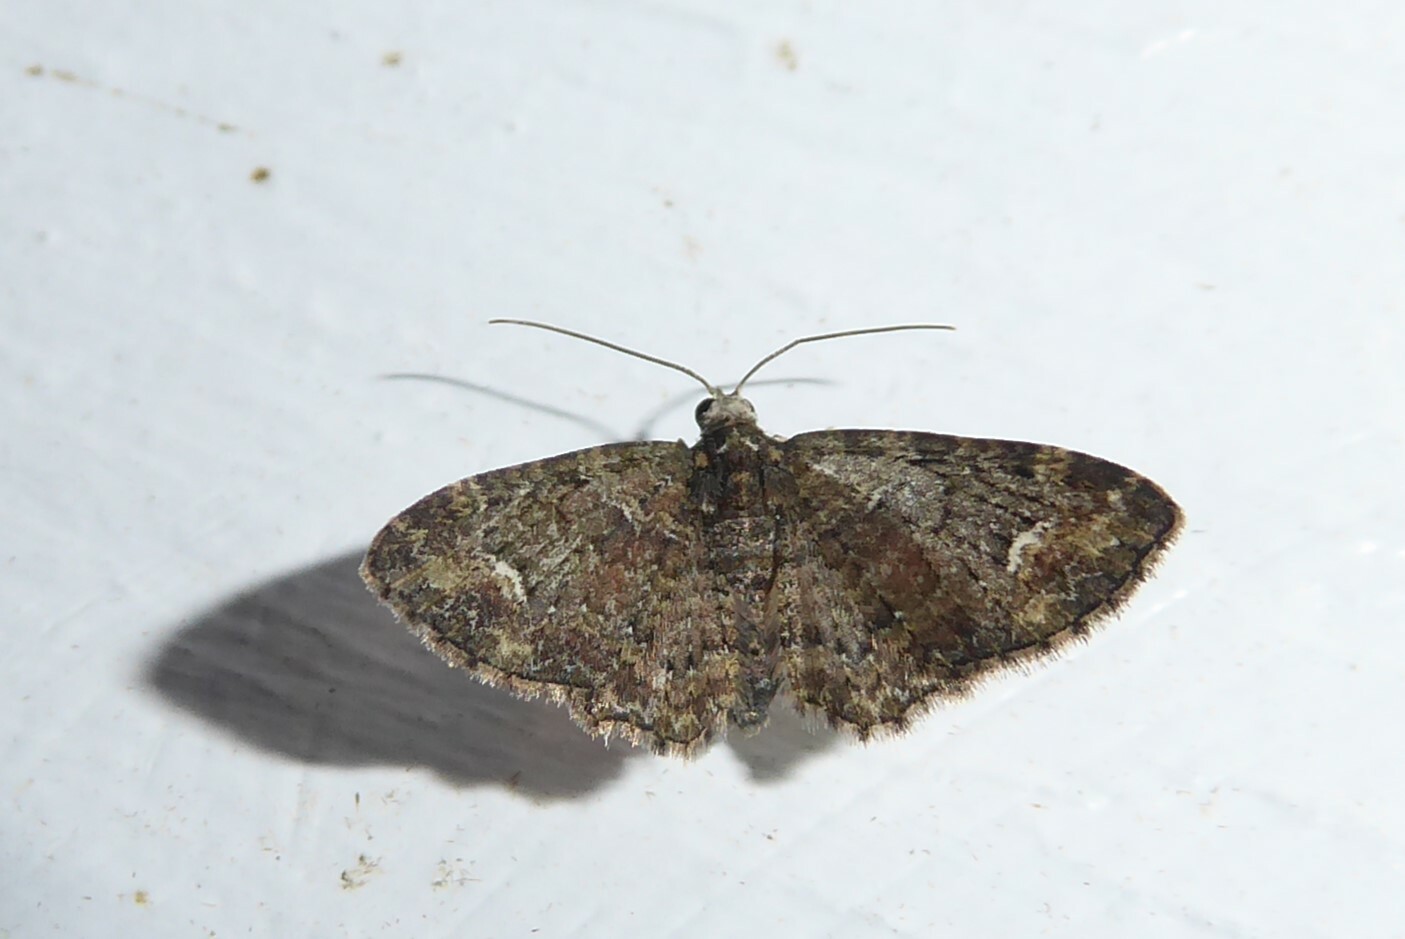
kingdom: Animalia
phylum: Arthropoda
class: Insecta
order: Lepidoptera
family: Geometridae
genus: Pasiphilodes
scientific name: Pasiphilodes testulata
